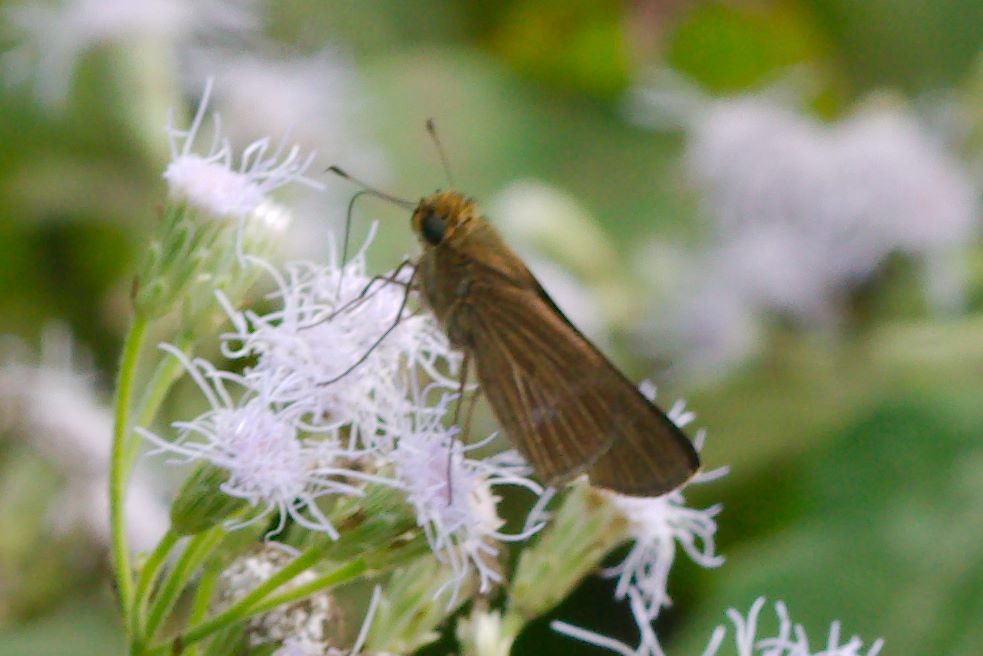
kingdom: Animalia
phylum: Arthropoda
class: Insecta
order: Lepidoptera
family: Hesperiidae
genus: Panoquina
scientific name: Panoquina ocola
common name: Ocola skipper
